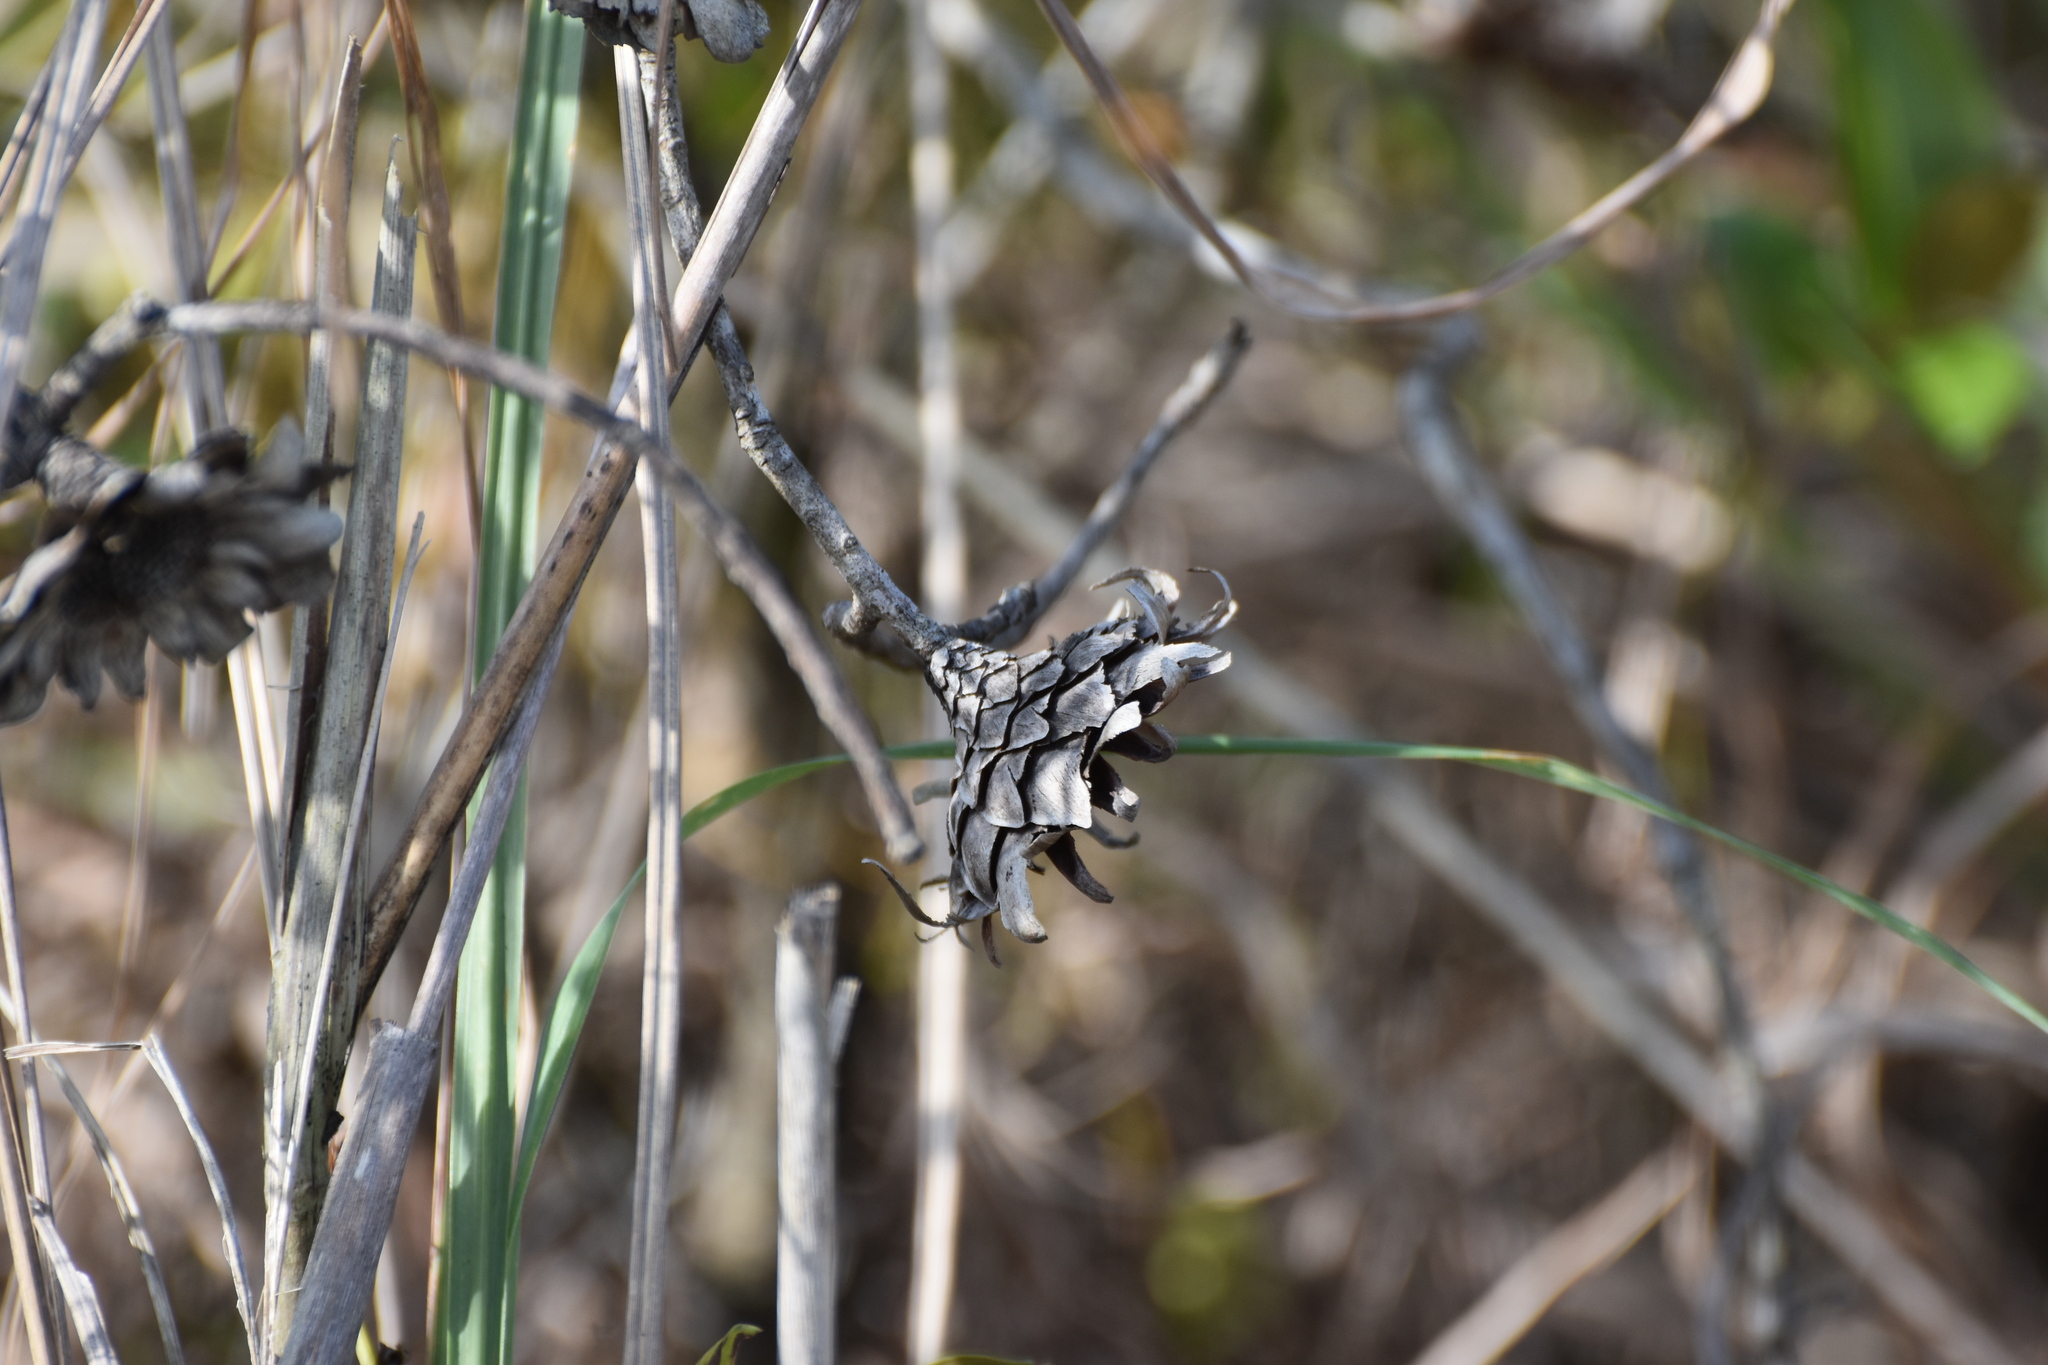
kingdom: Plantae
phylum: Tracheophyta
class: Magnoliopsida
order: Proteales
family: Proteaceae
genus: Protea
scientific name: Protea caffra
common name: Common sugarbush
